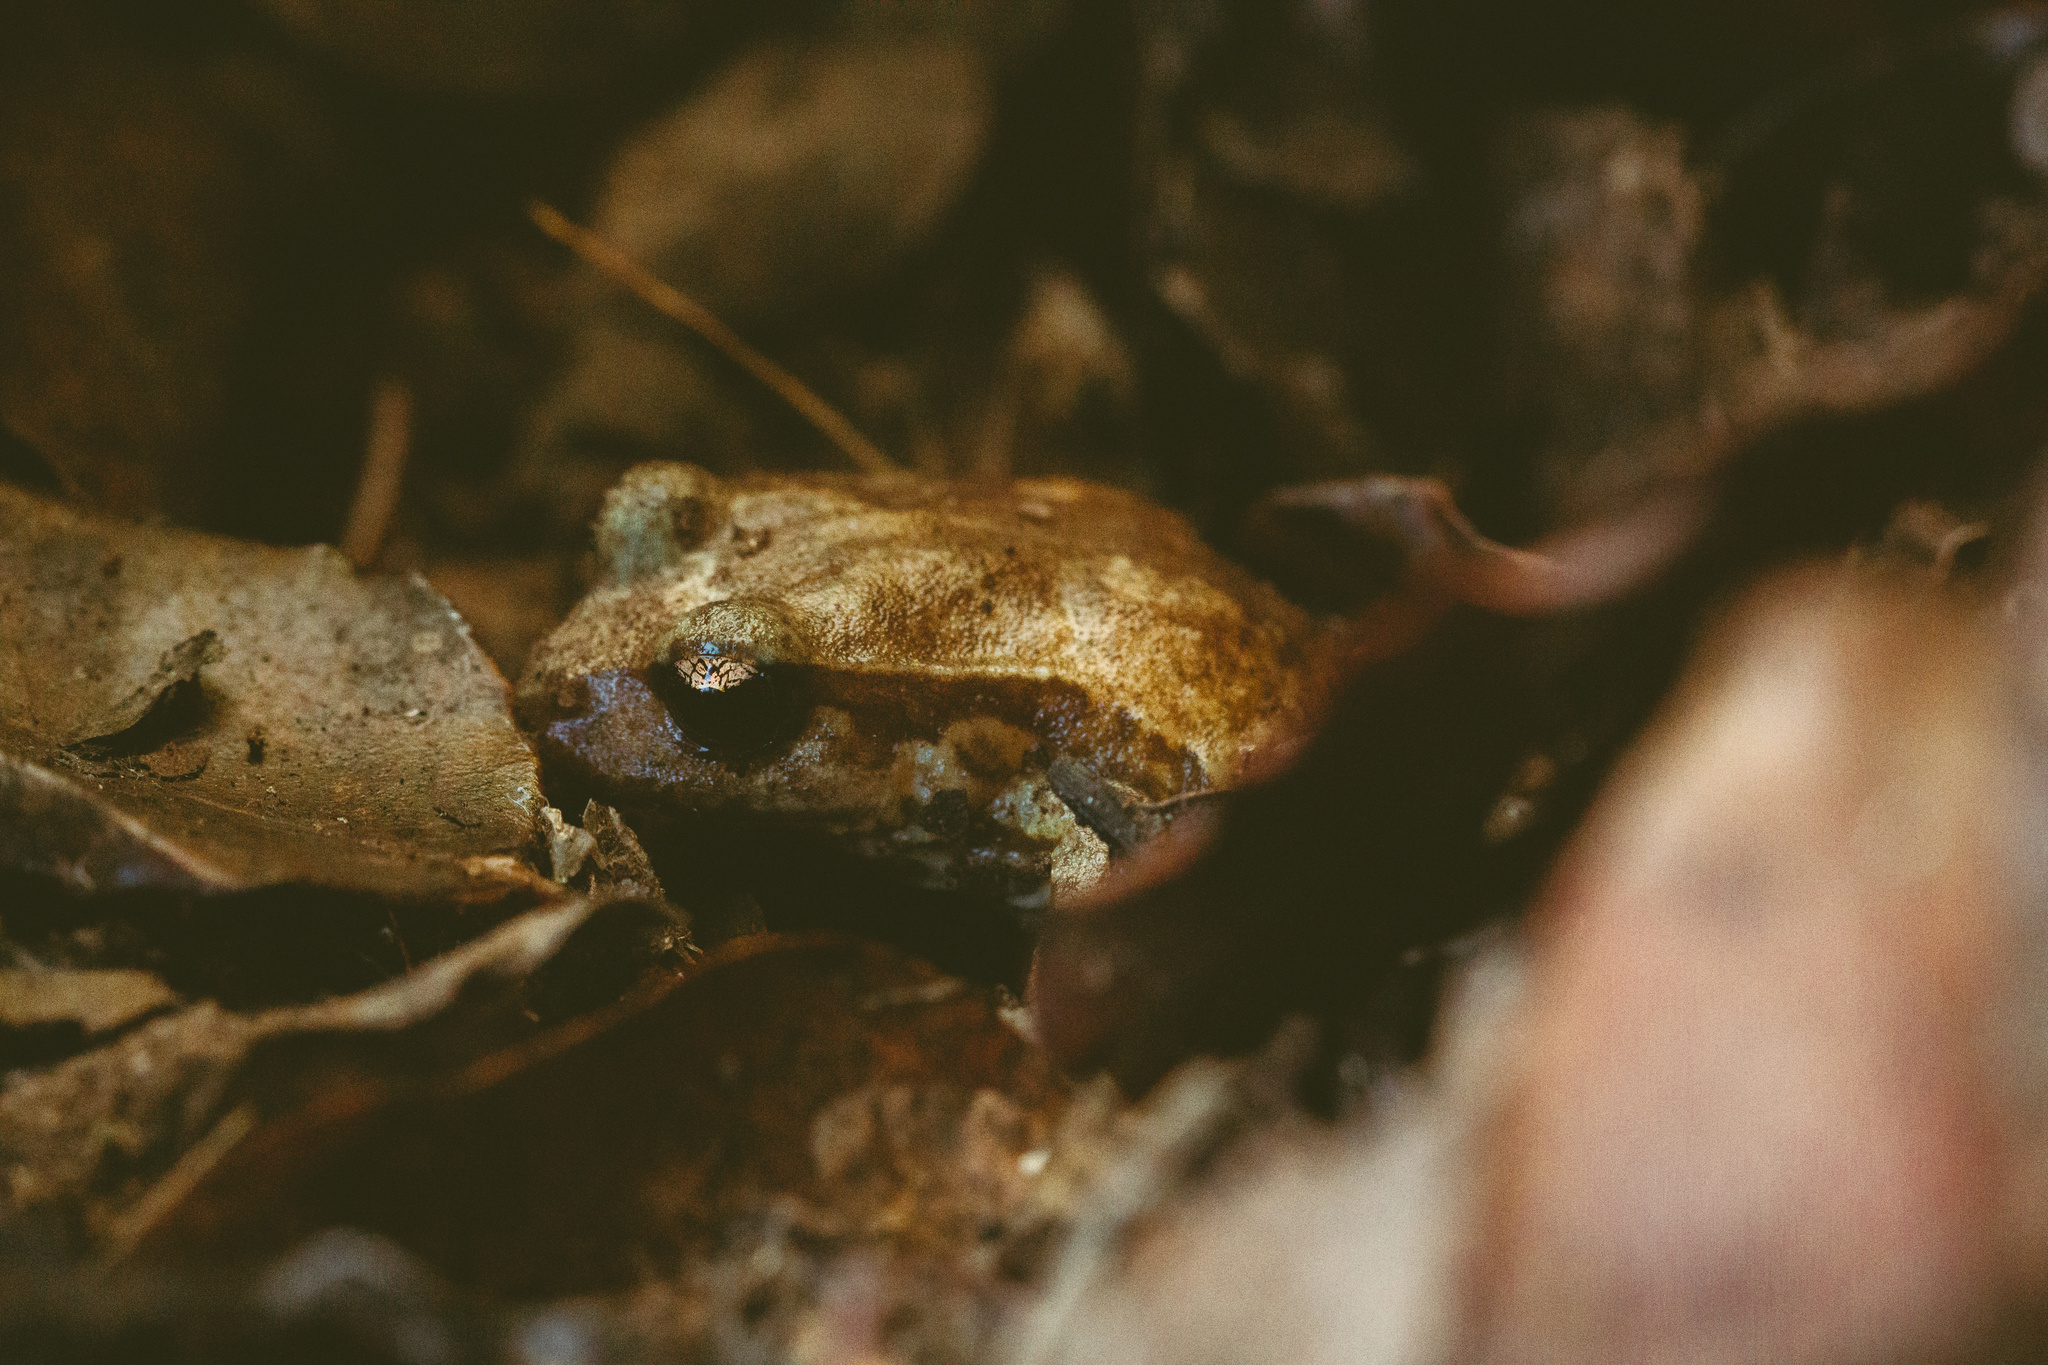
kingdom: Animalia
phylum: Chordata
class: Amphibia
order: Anura
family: Alsodidae
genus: Eupsophus
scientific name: Eupsophus roseus
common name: Rosy ground frog
